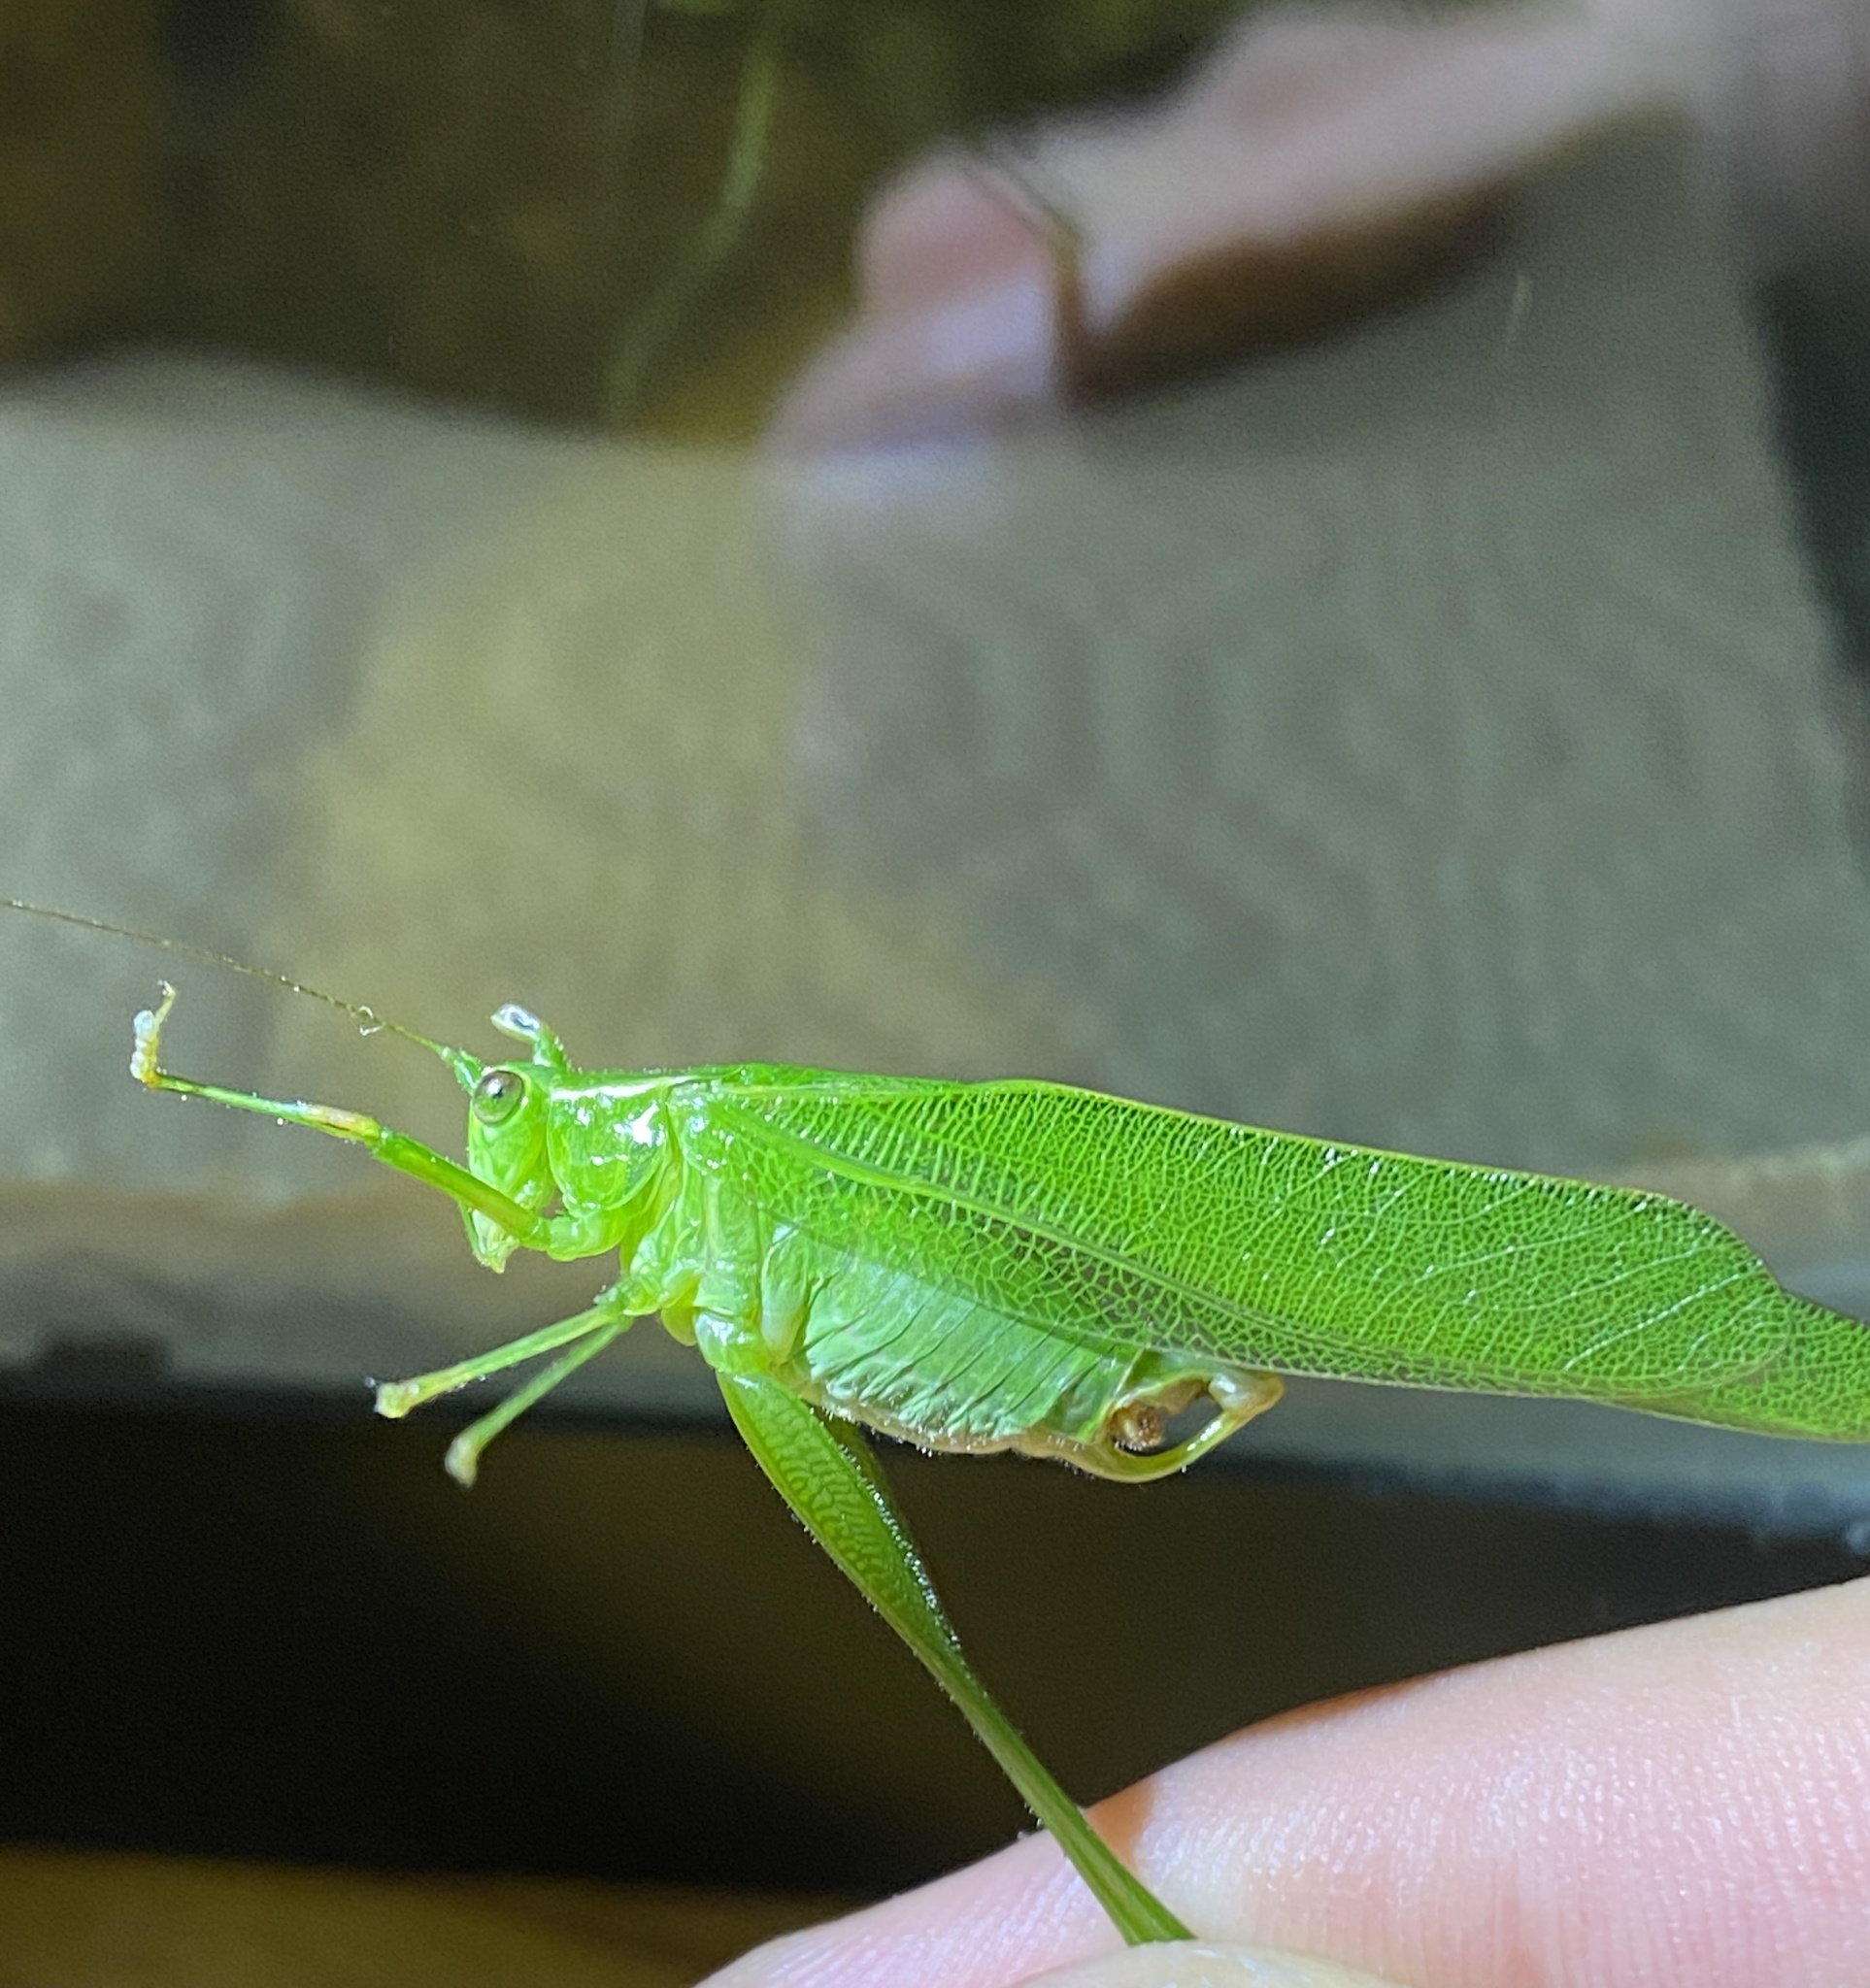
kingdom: Animalia
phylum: Arthropoda
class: Insecta
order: Orthoptera
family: Tettigoniidae
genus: Scudderia
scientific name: Scudderia furcata
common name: Fork-tailed bush katydid
